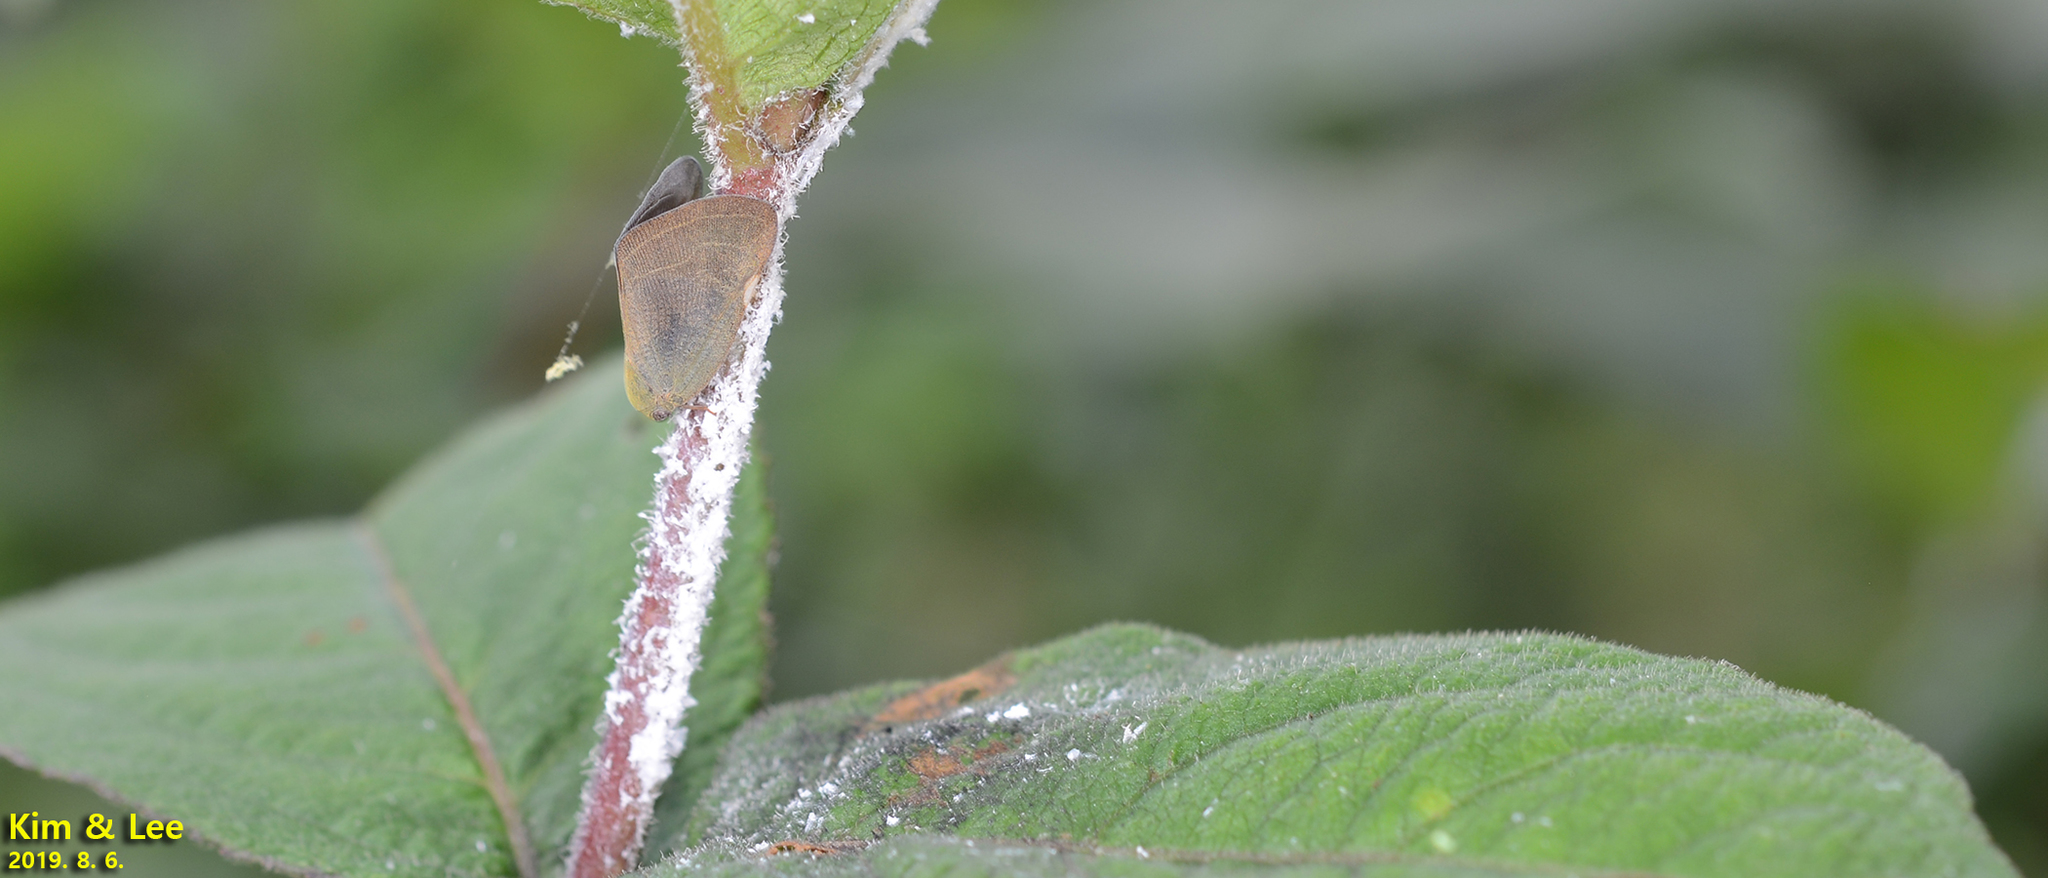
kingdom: Animalia
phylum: Arthropoda
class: Insecta
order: Hemiptera
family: Ricaniidae
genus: Ricanula
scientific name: Ricanula sublimata
